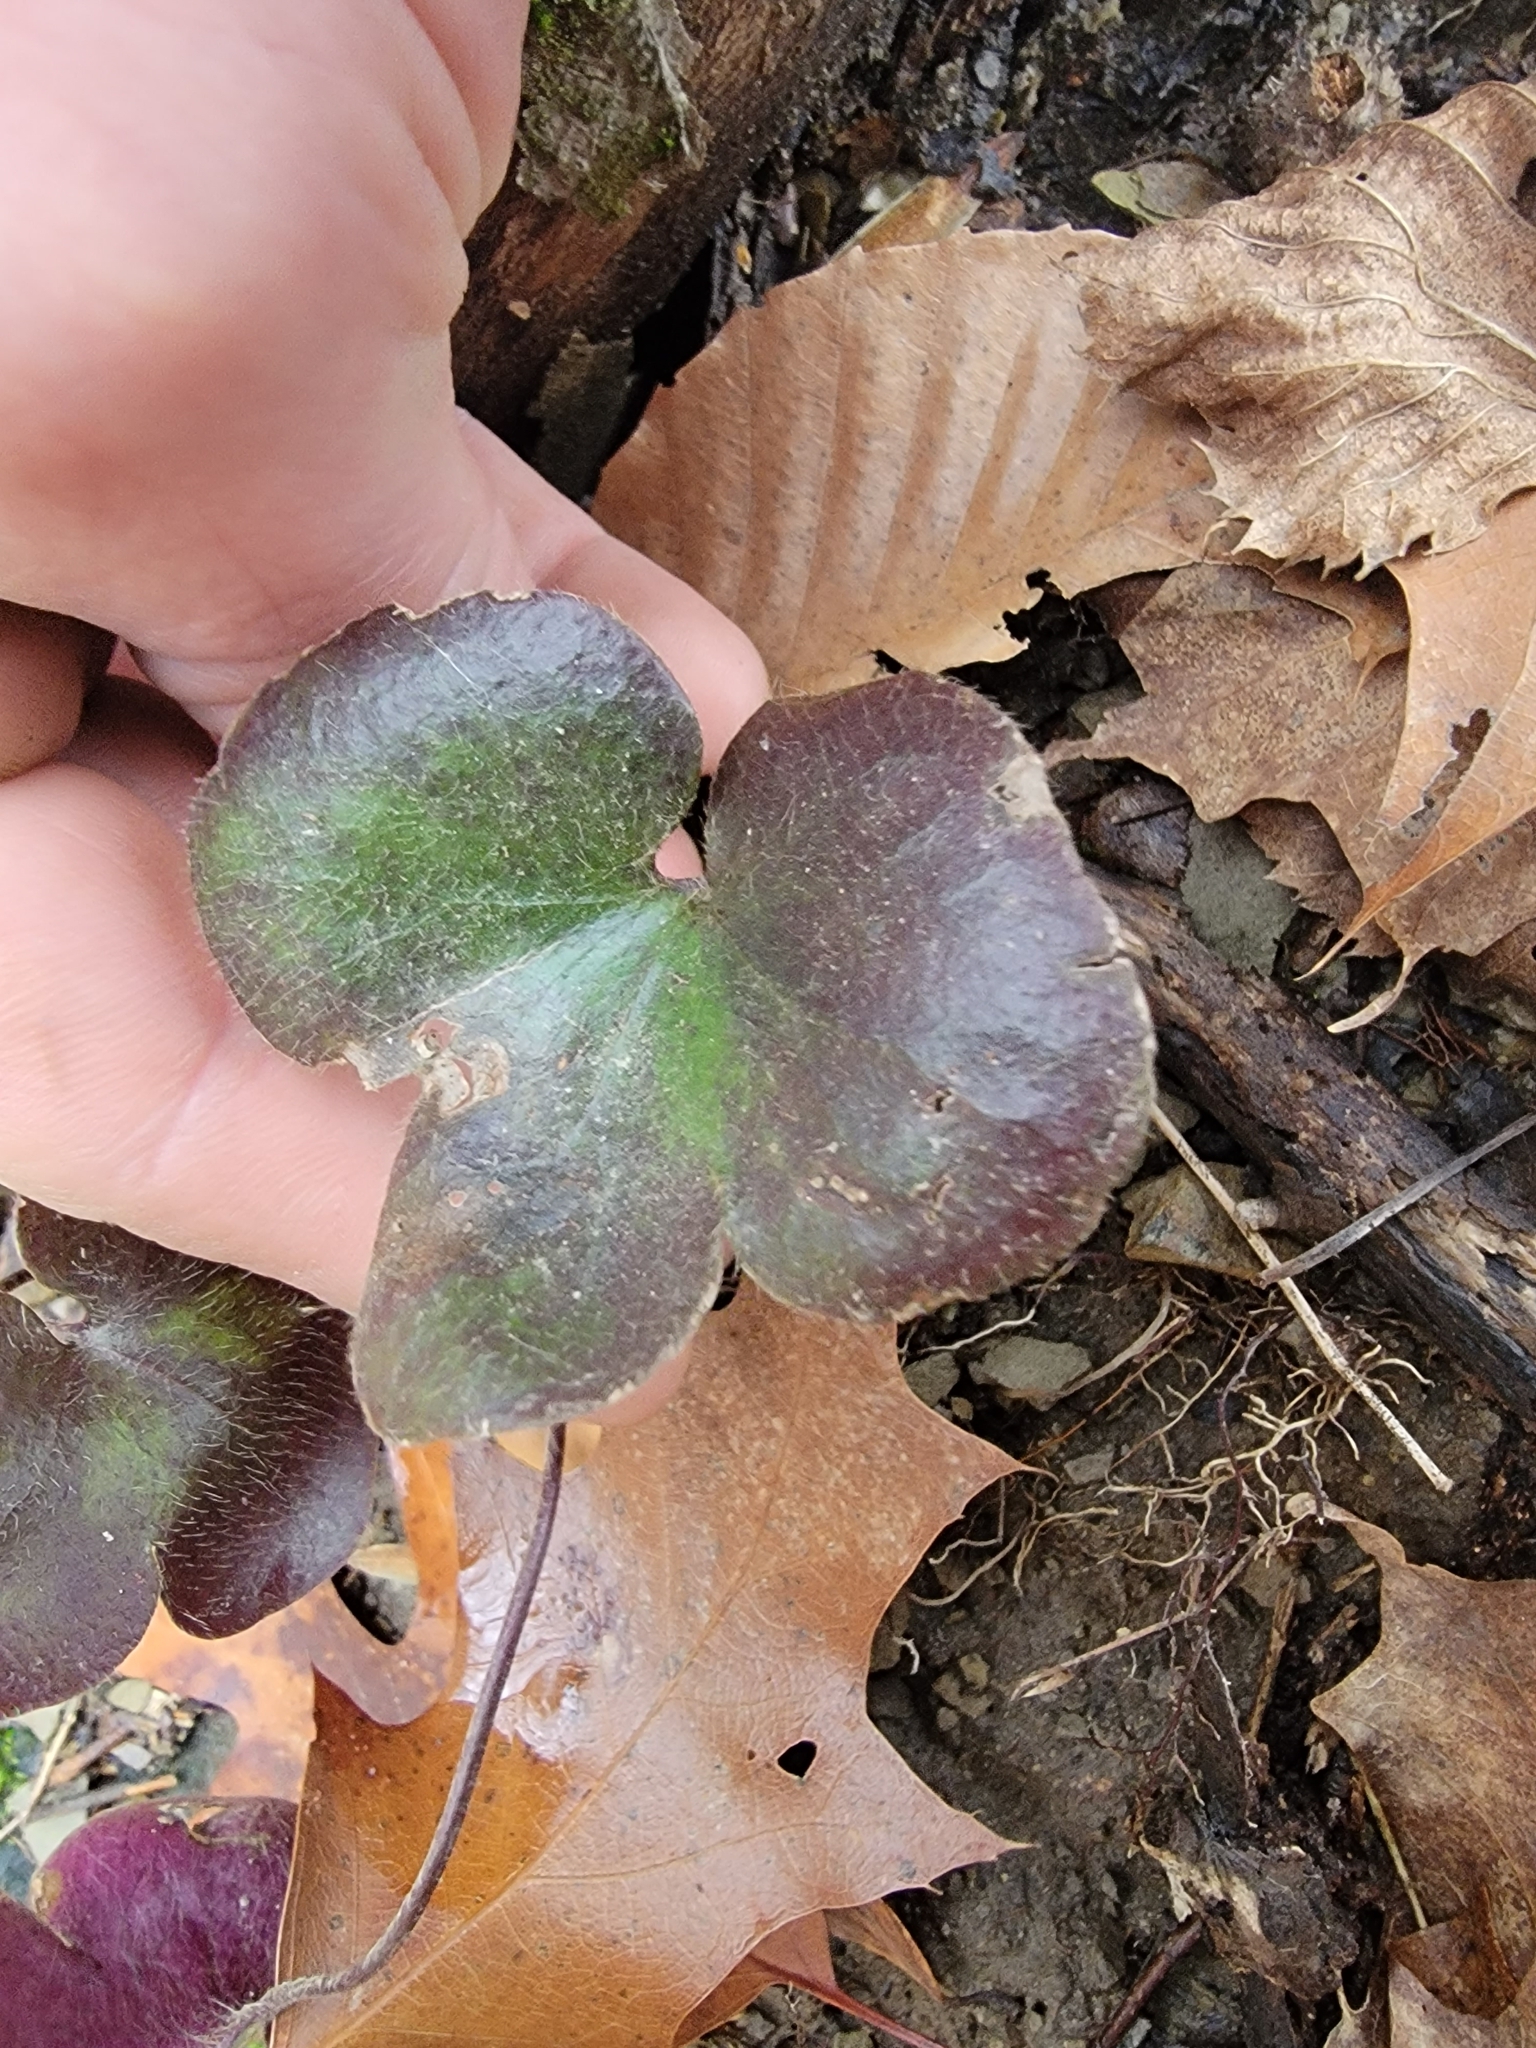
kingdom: Plantae
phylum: Tracheophyta
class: Magnoliopsida
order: Ranunculales
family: Ranunculaceae
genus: Hepatica
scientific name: Hepatica americana
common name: American hepatica
